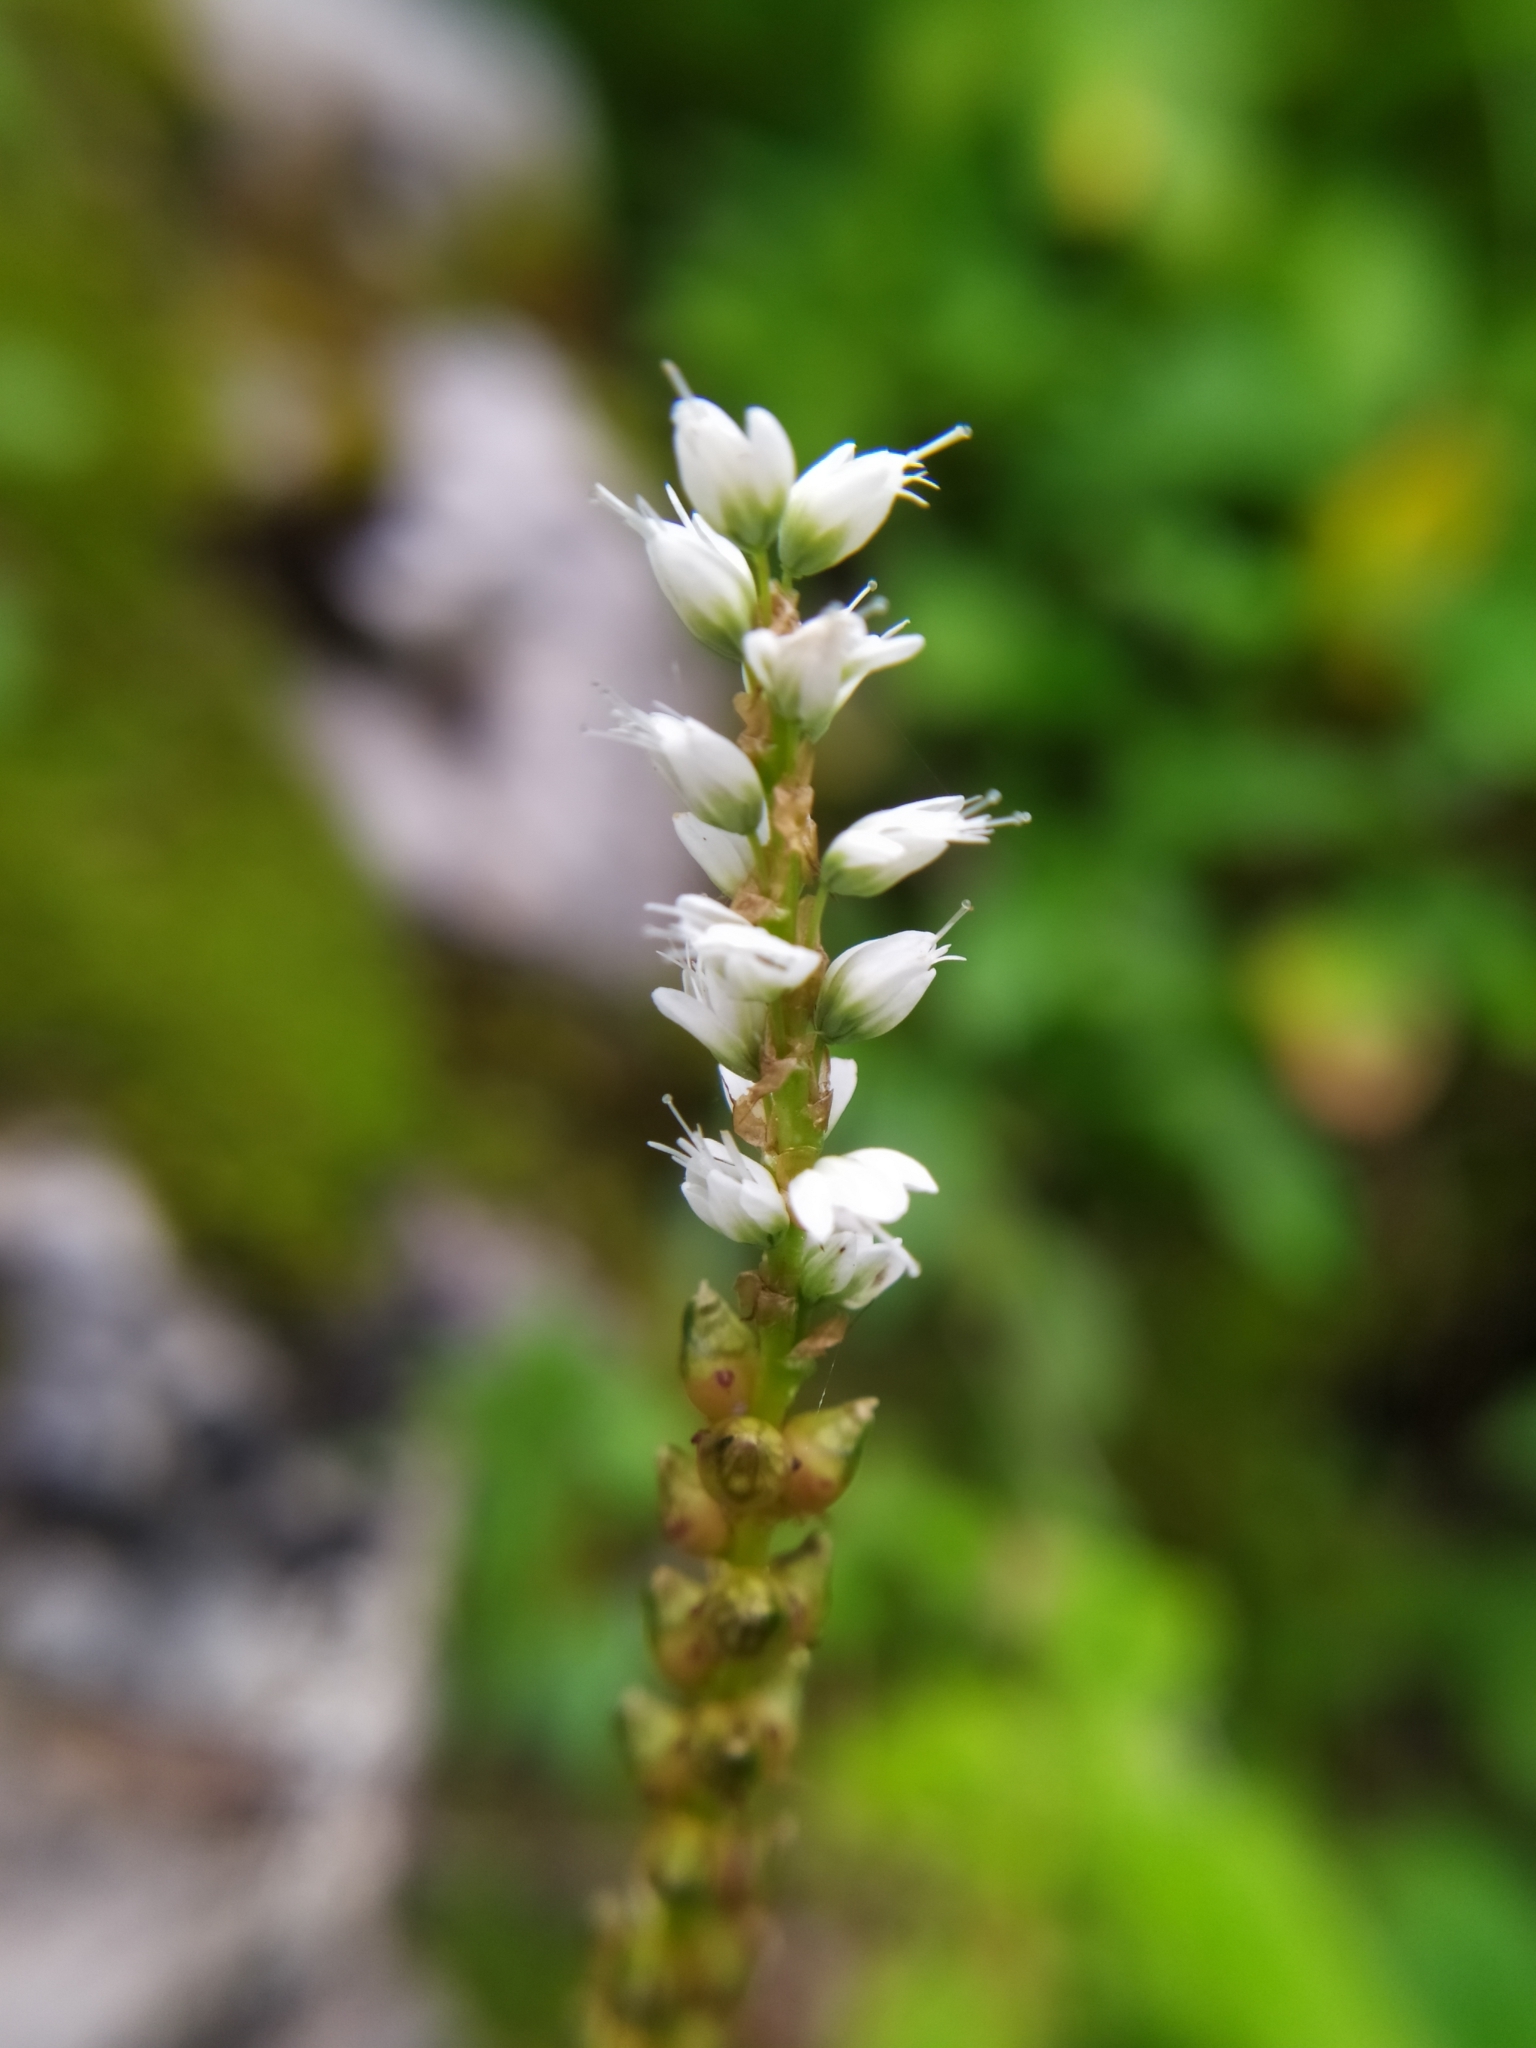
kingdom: Plantae
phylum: Tracheophyta
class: Magnoliopsida
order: Caryophyllales
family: Polygonaceae
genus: Bistorta
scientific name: Bistorta vivipara
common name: Alpine bistort
